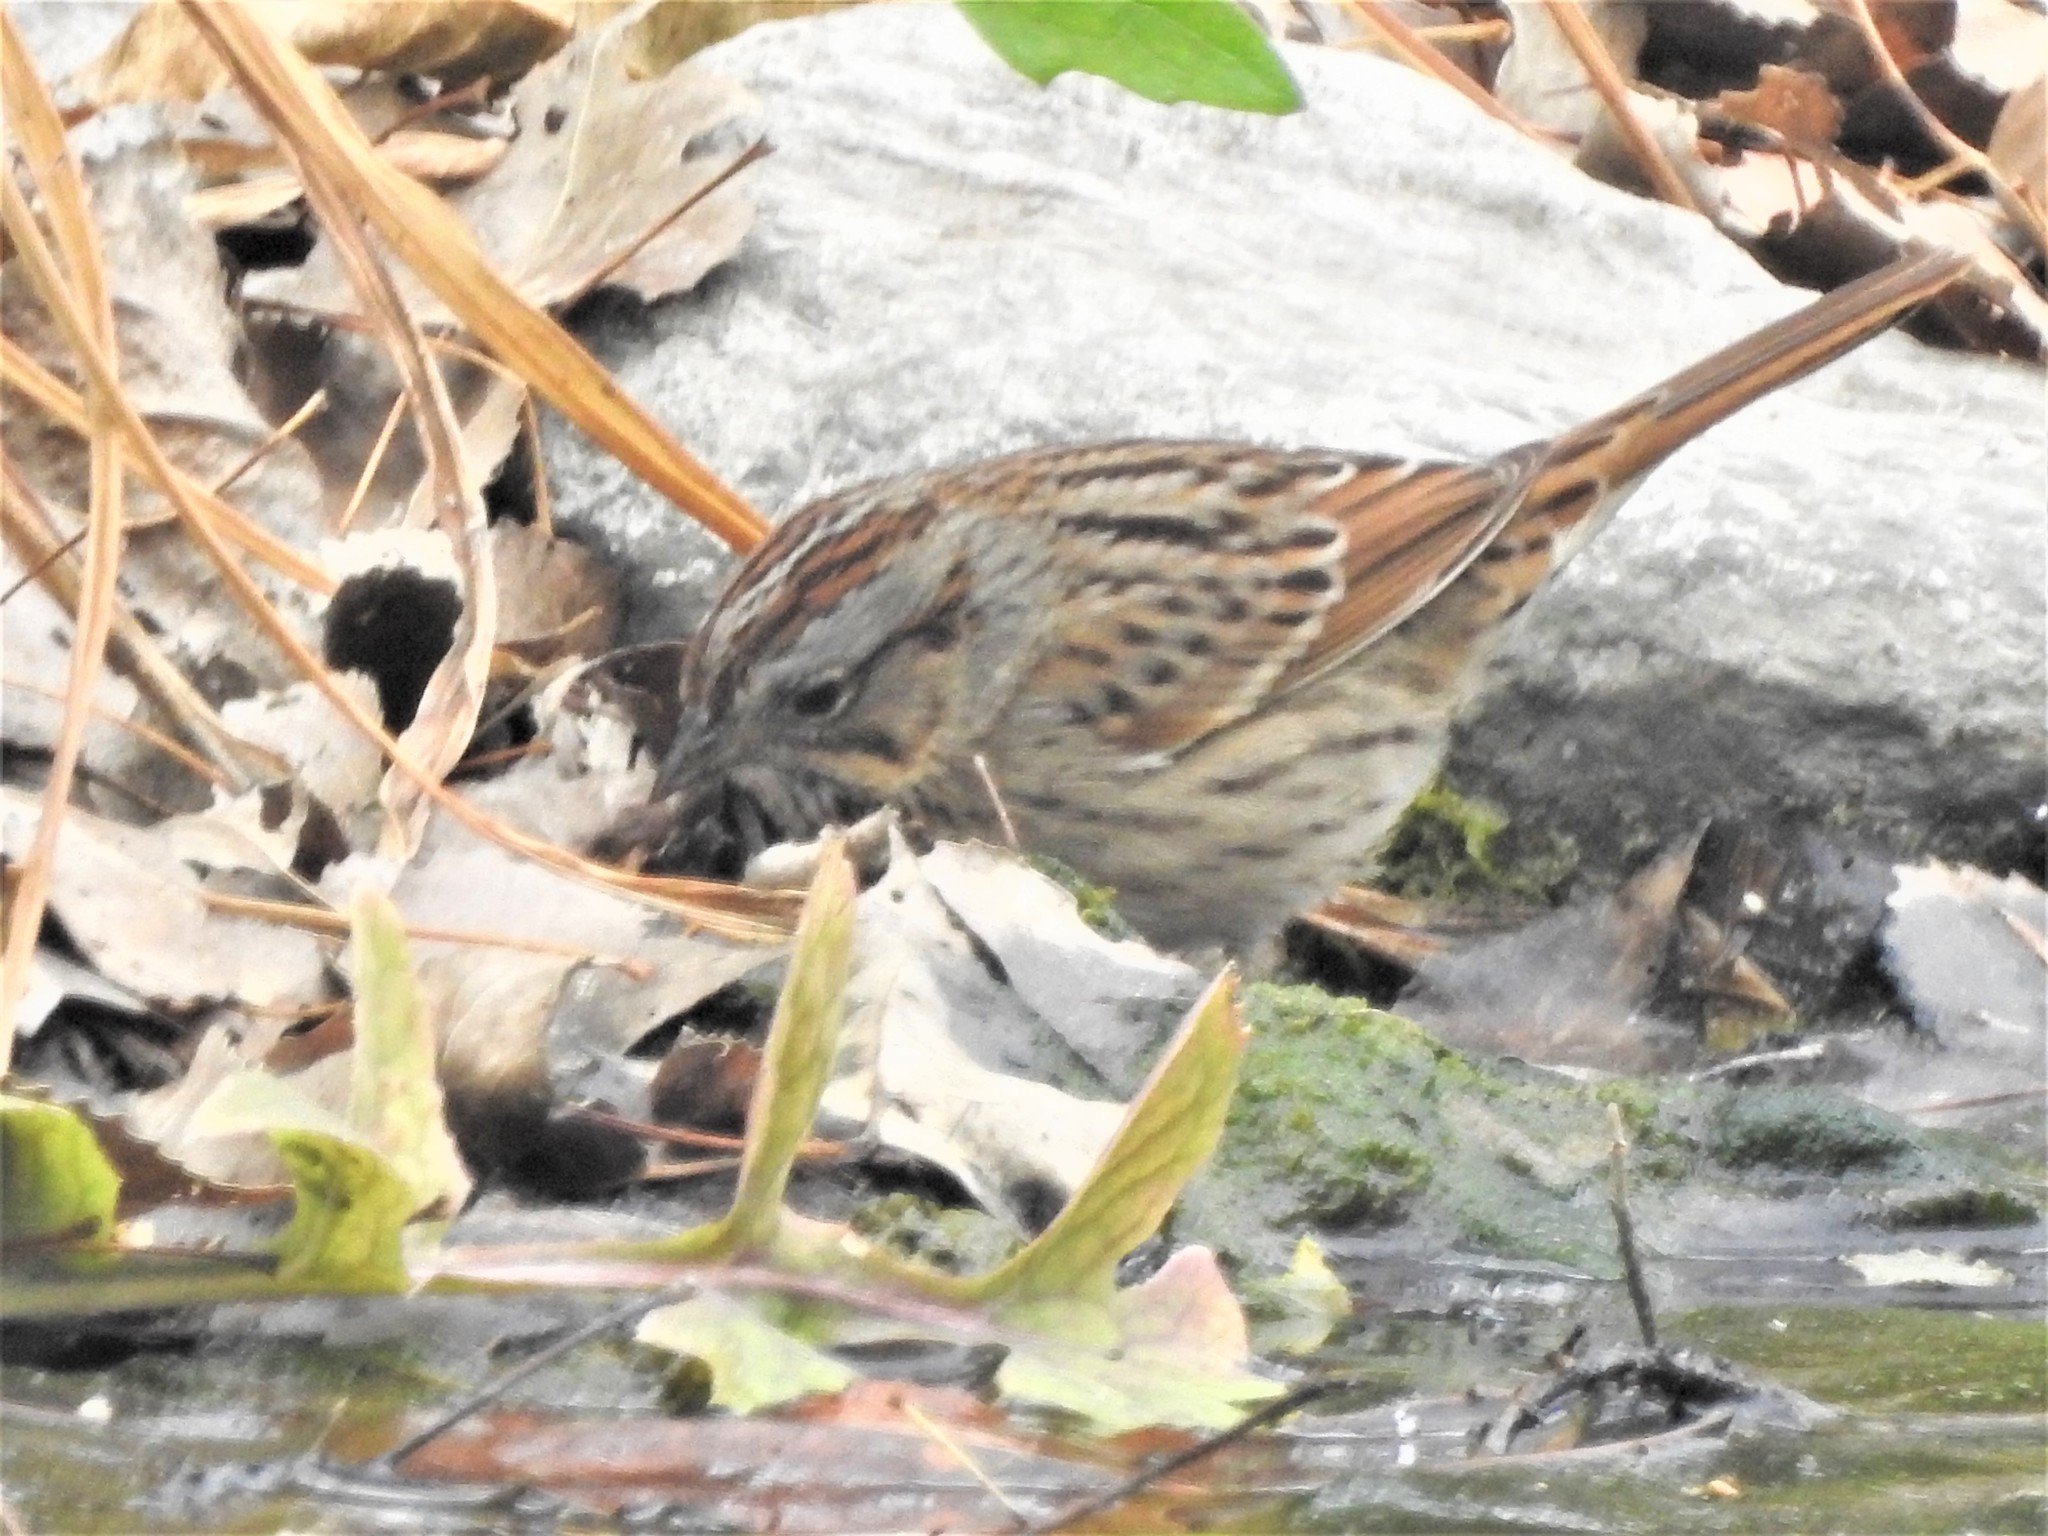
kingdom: Animalia
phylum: Chordata
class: Aves
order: Passeriformes
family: Passerellidae
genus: Melospiza
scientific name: Melospiza lincolnii
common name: Lincoln's sparrow
